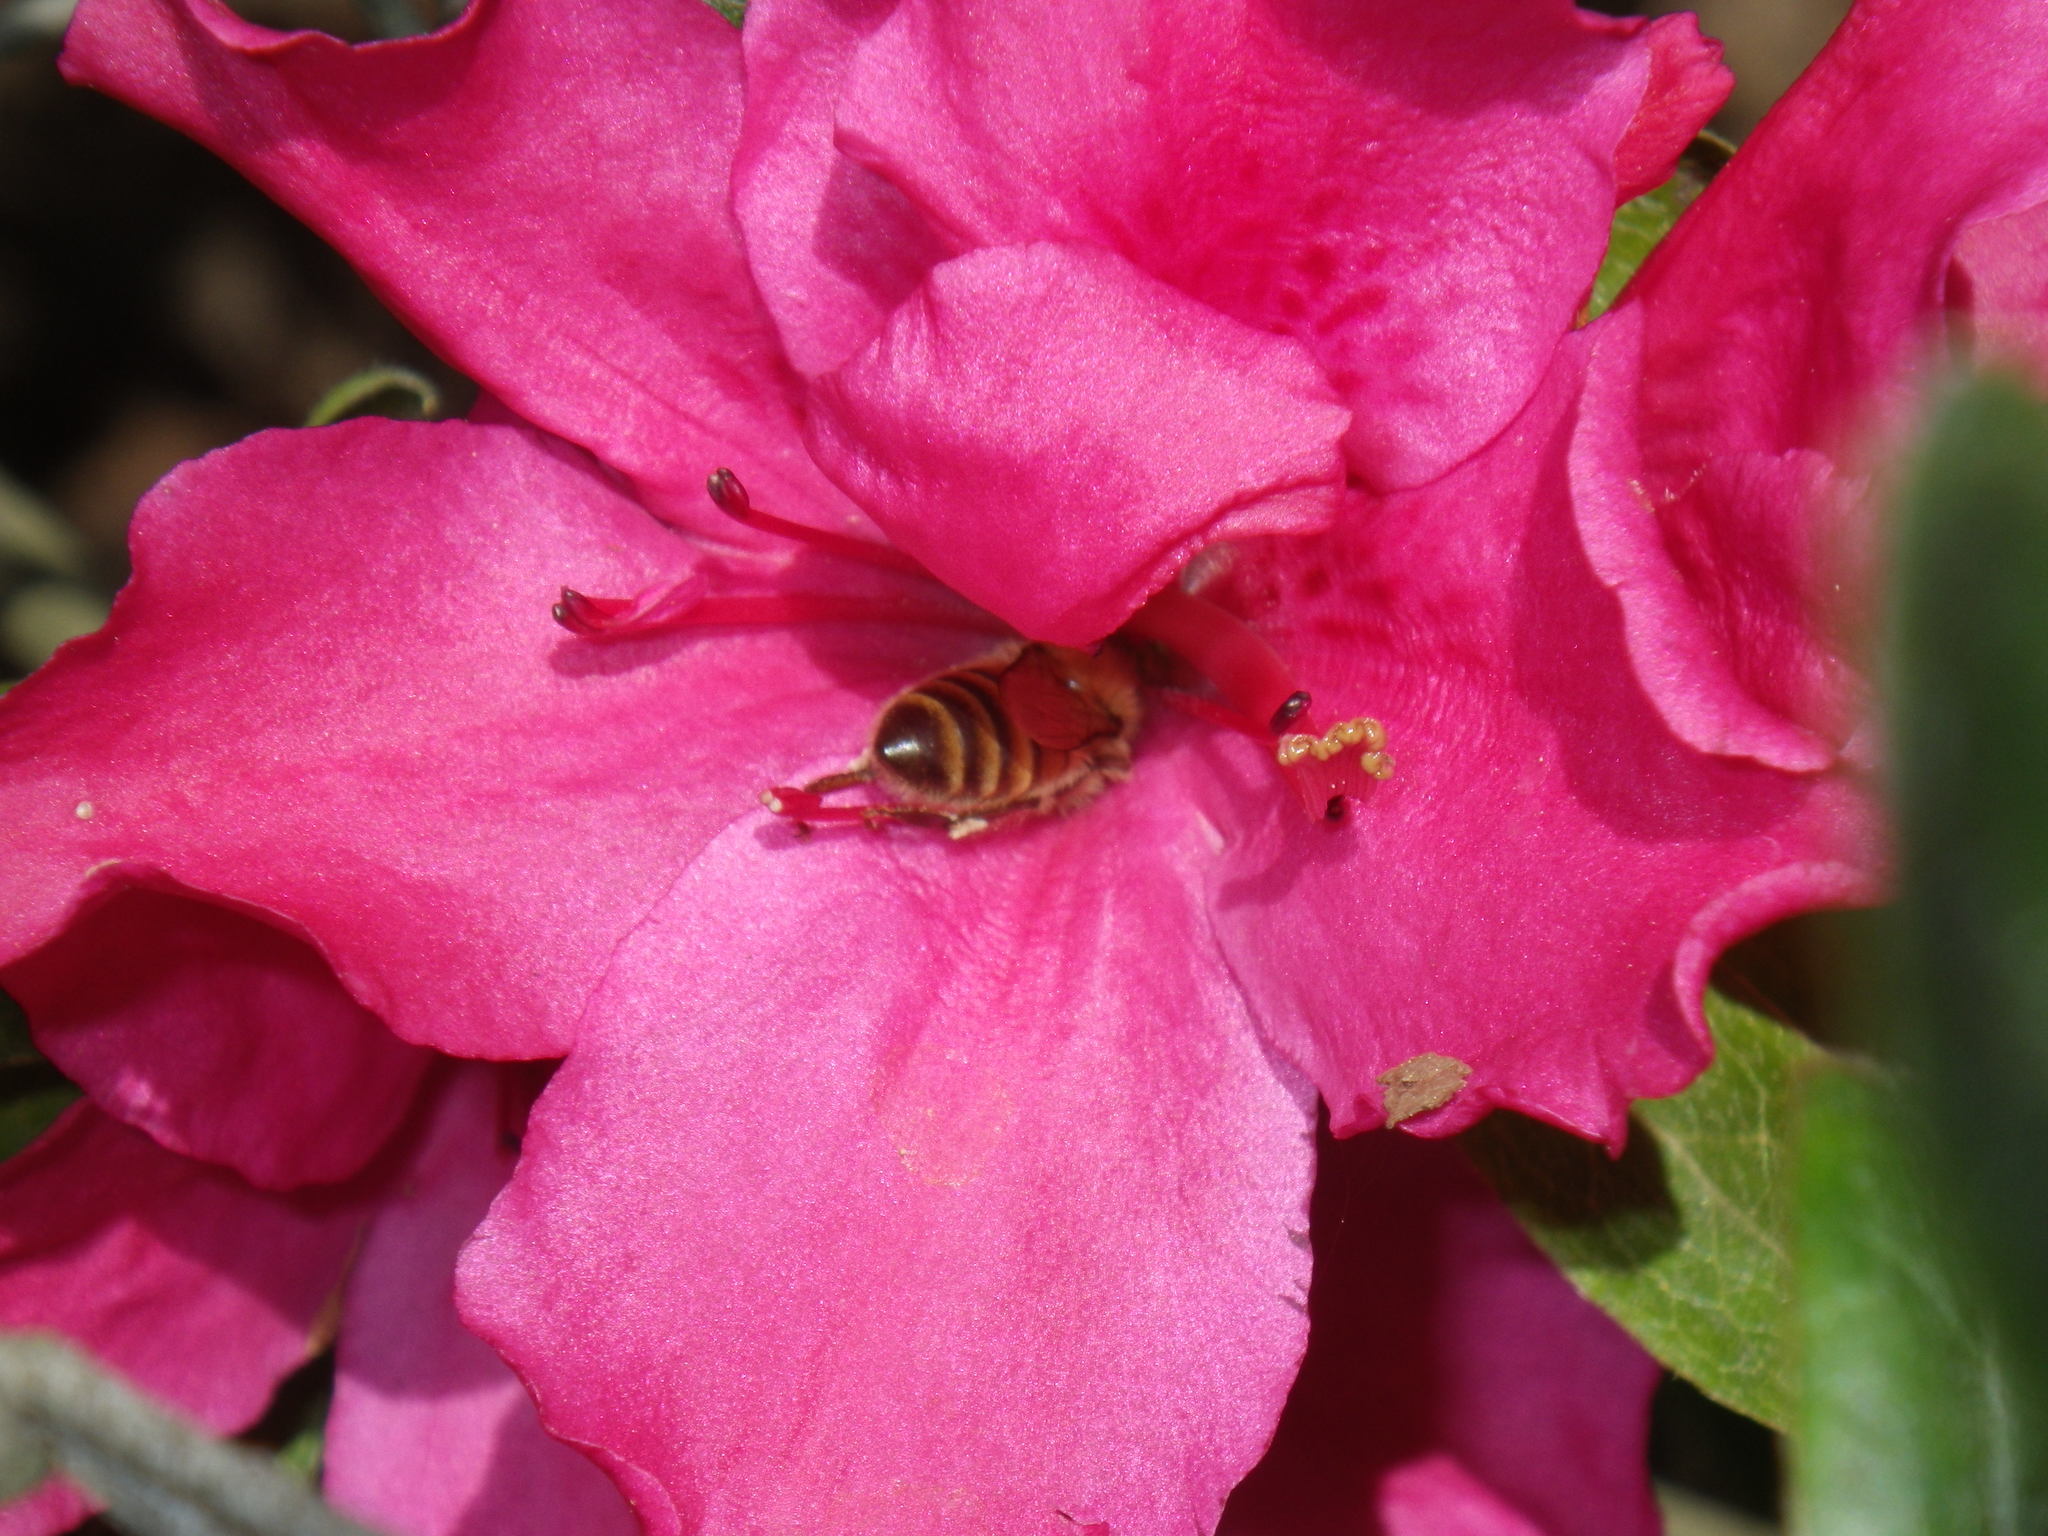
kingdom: Animalia
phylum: Arthropoda
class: Insecta
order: Hymenoptera
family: Apidae
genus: Apis
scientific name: Apis mellifera
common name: Honey bee
